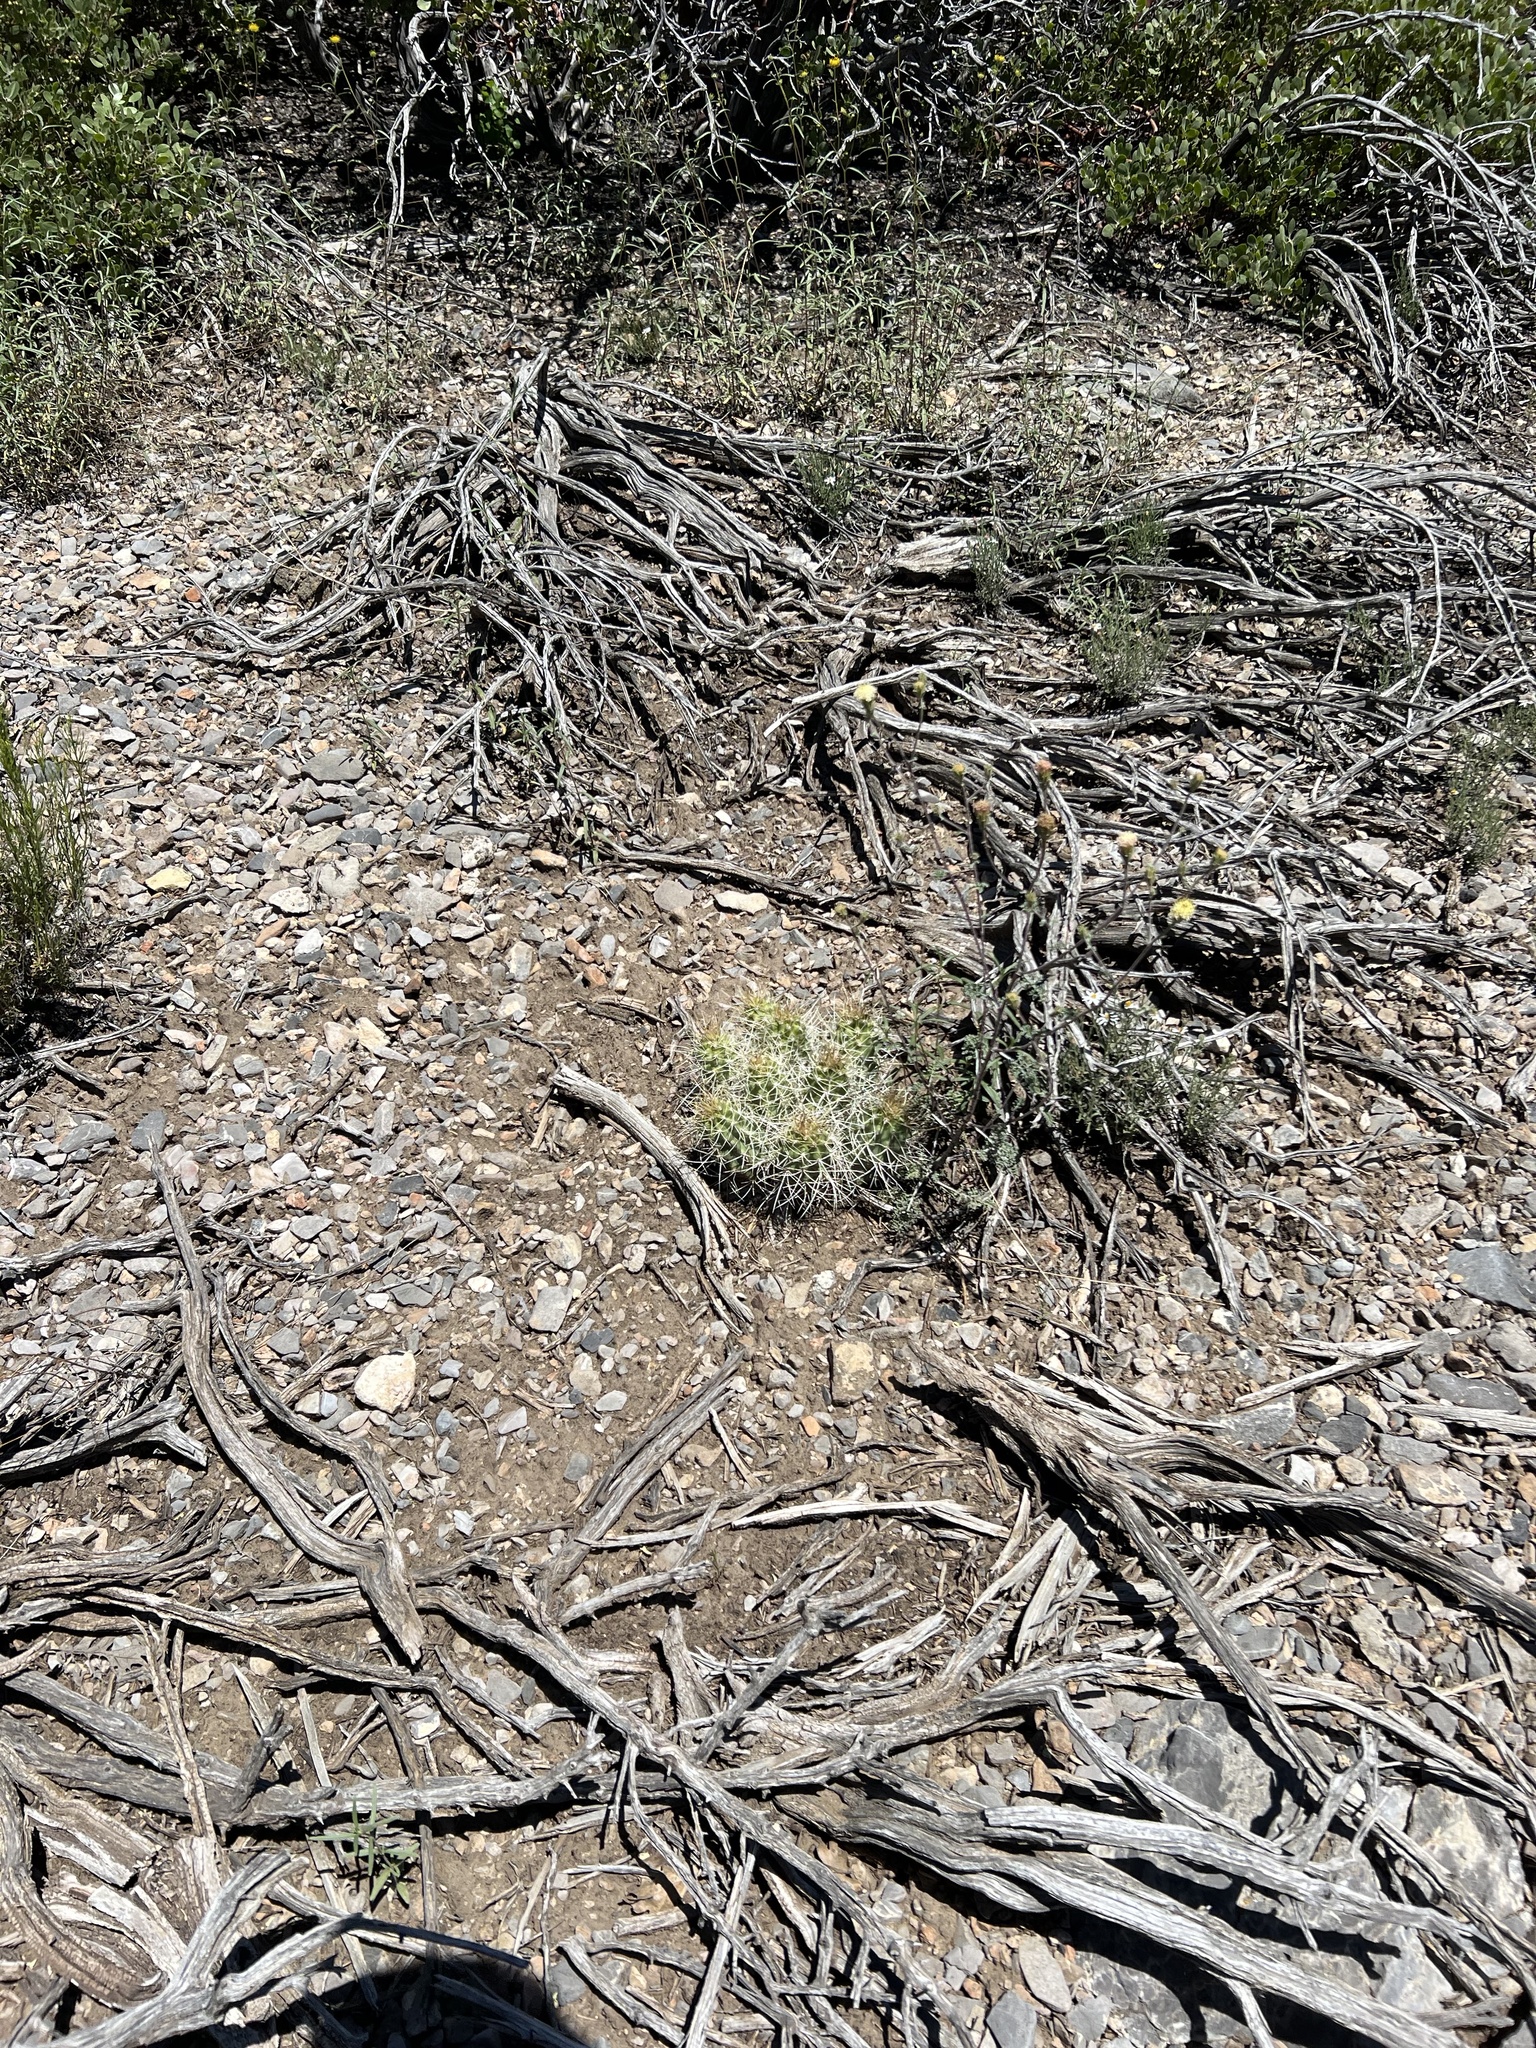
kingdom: Plantae
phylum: Tracheophyta
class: Magnoliopsida
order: Caryophyllales
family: Cactaceae
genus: Echinocereus
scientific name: Echinocereus triglochidiatus
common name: Claretcup hedgehog
